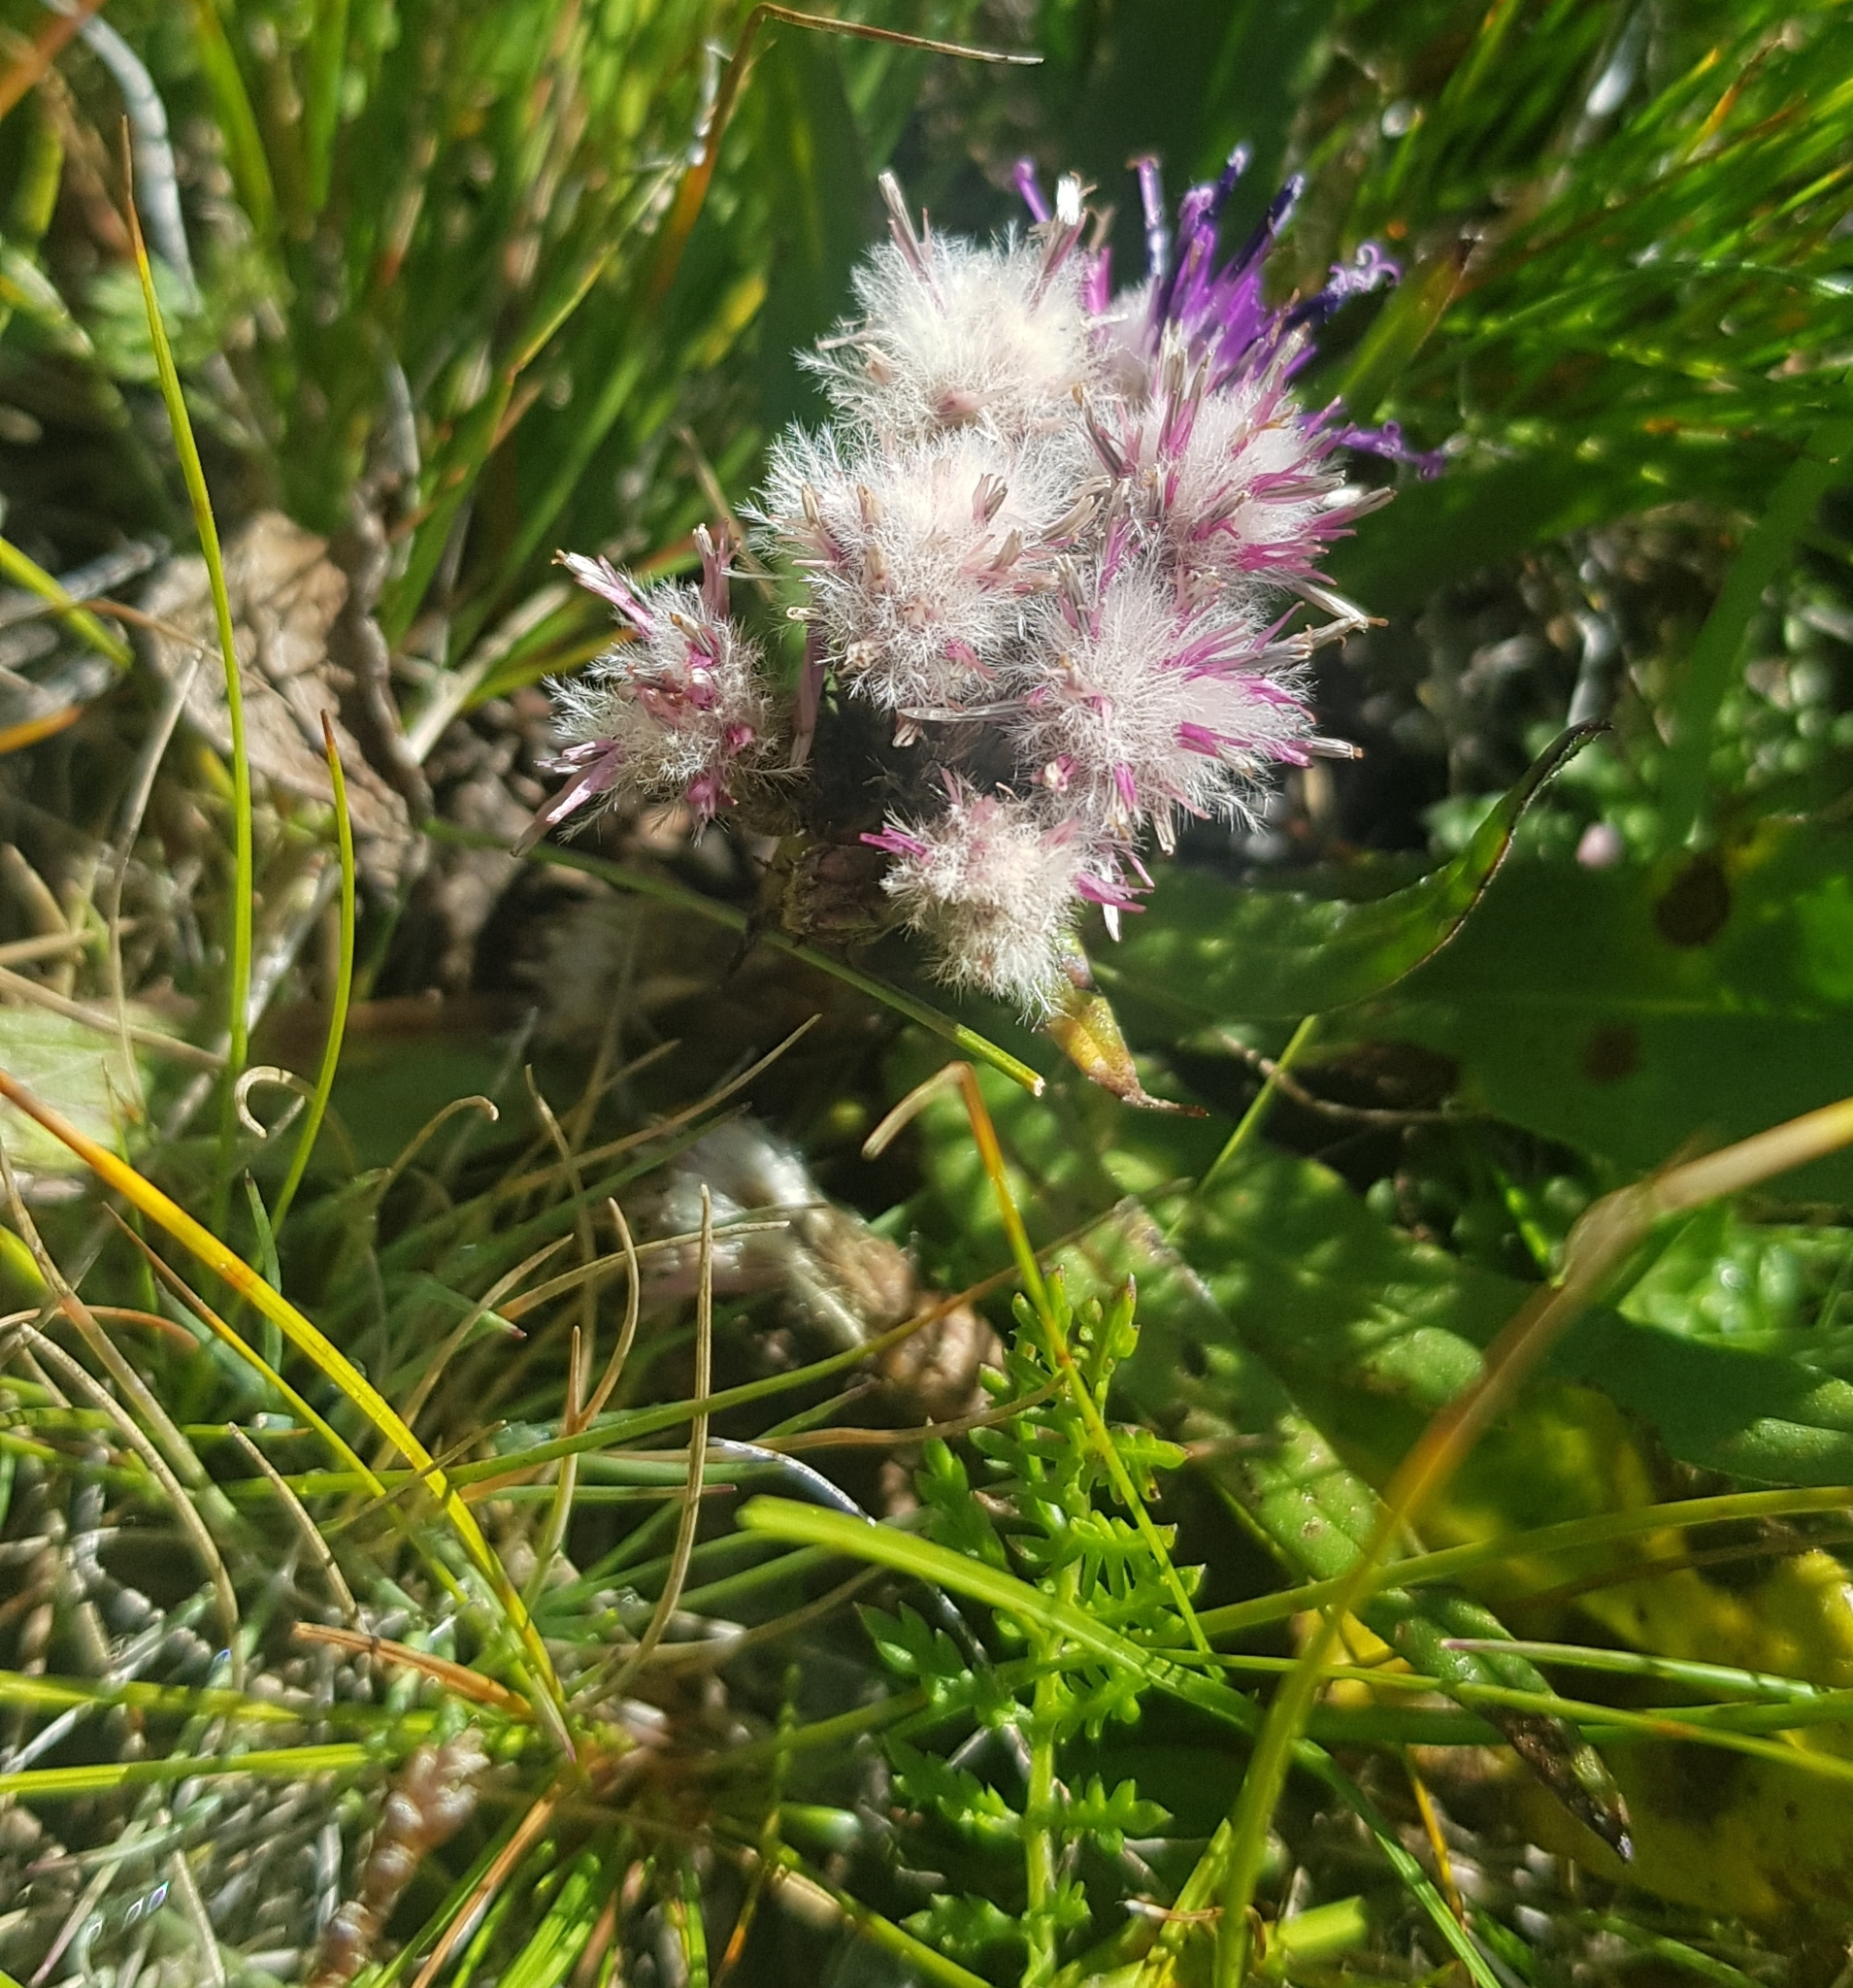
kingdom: Plantae
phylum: Tracheophyta
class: Magnoliopsida
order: Asterales
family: Asteraceae
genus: Saussurea
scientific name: Saussurea alpina
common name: Alpine saw-wort
